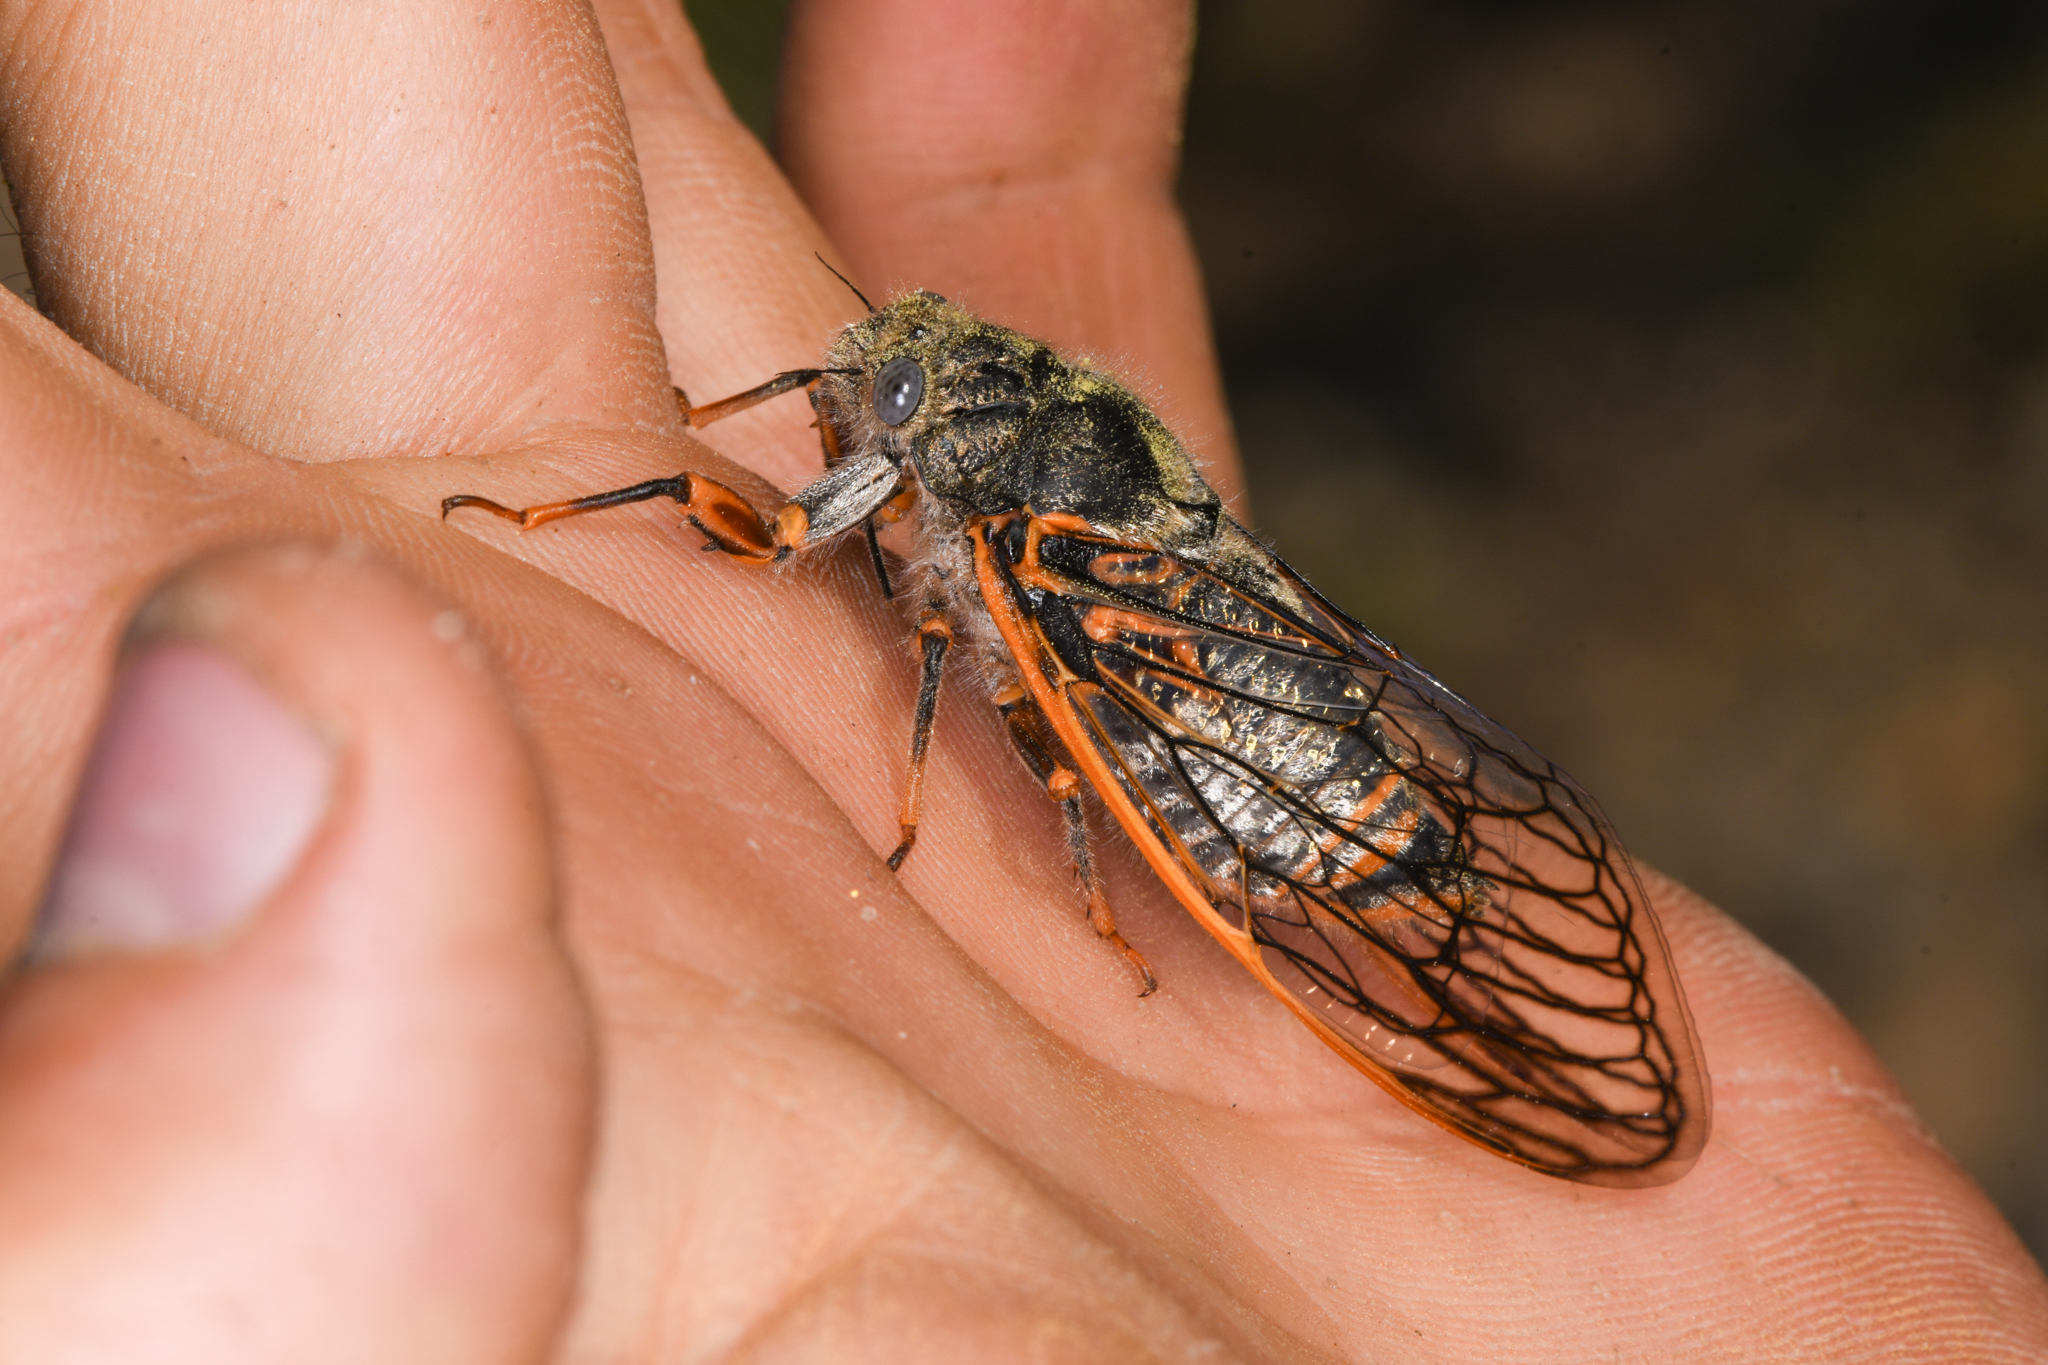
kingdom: Animalia
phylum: Arthropoda
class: Insecta
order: Hemiptera
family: Cicadidae
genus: Okanagana
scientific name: Okanagana magnifica
